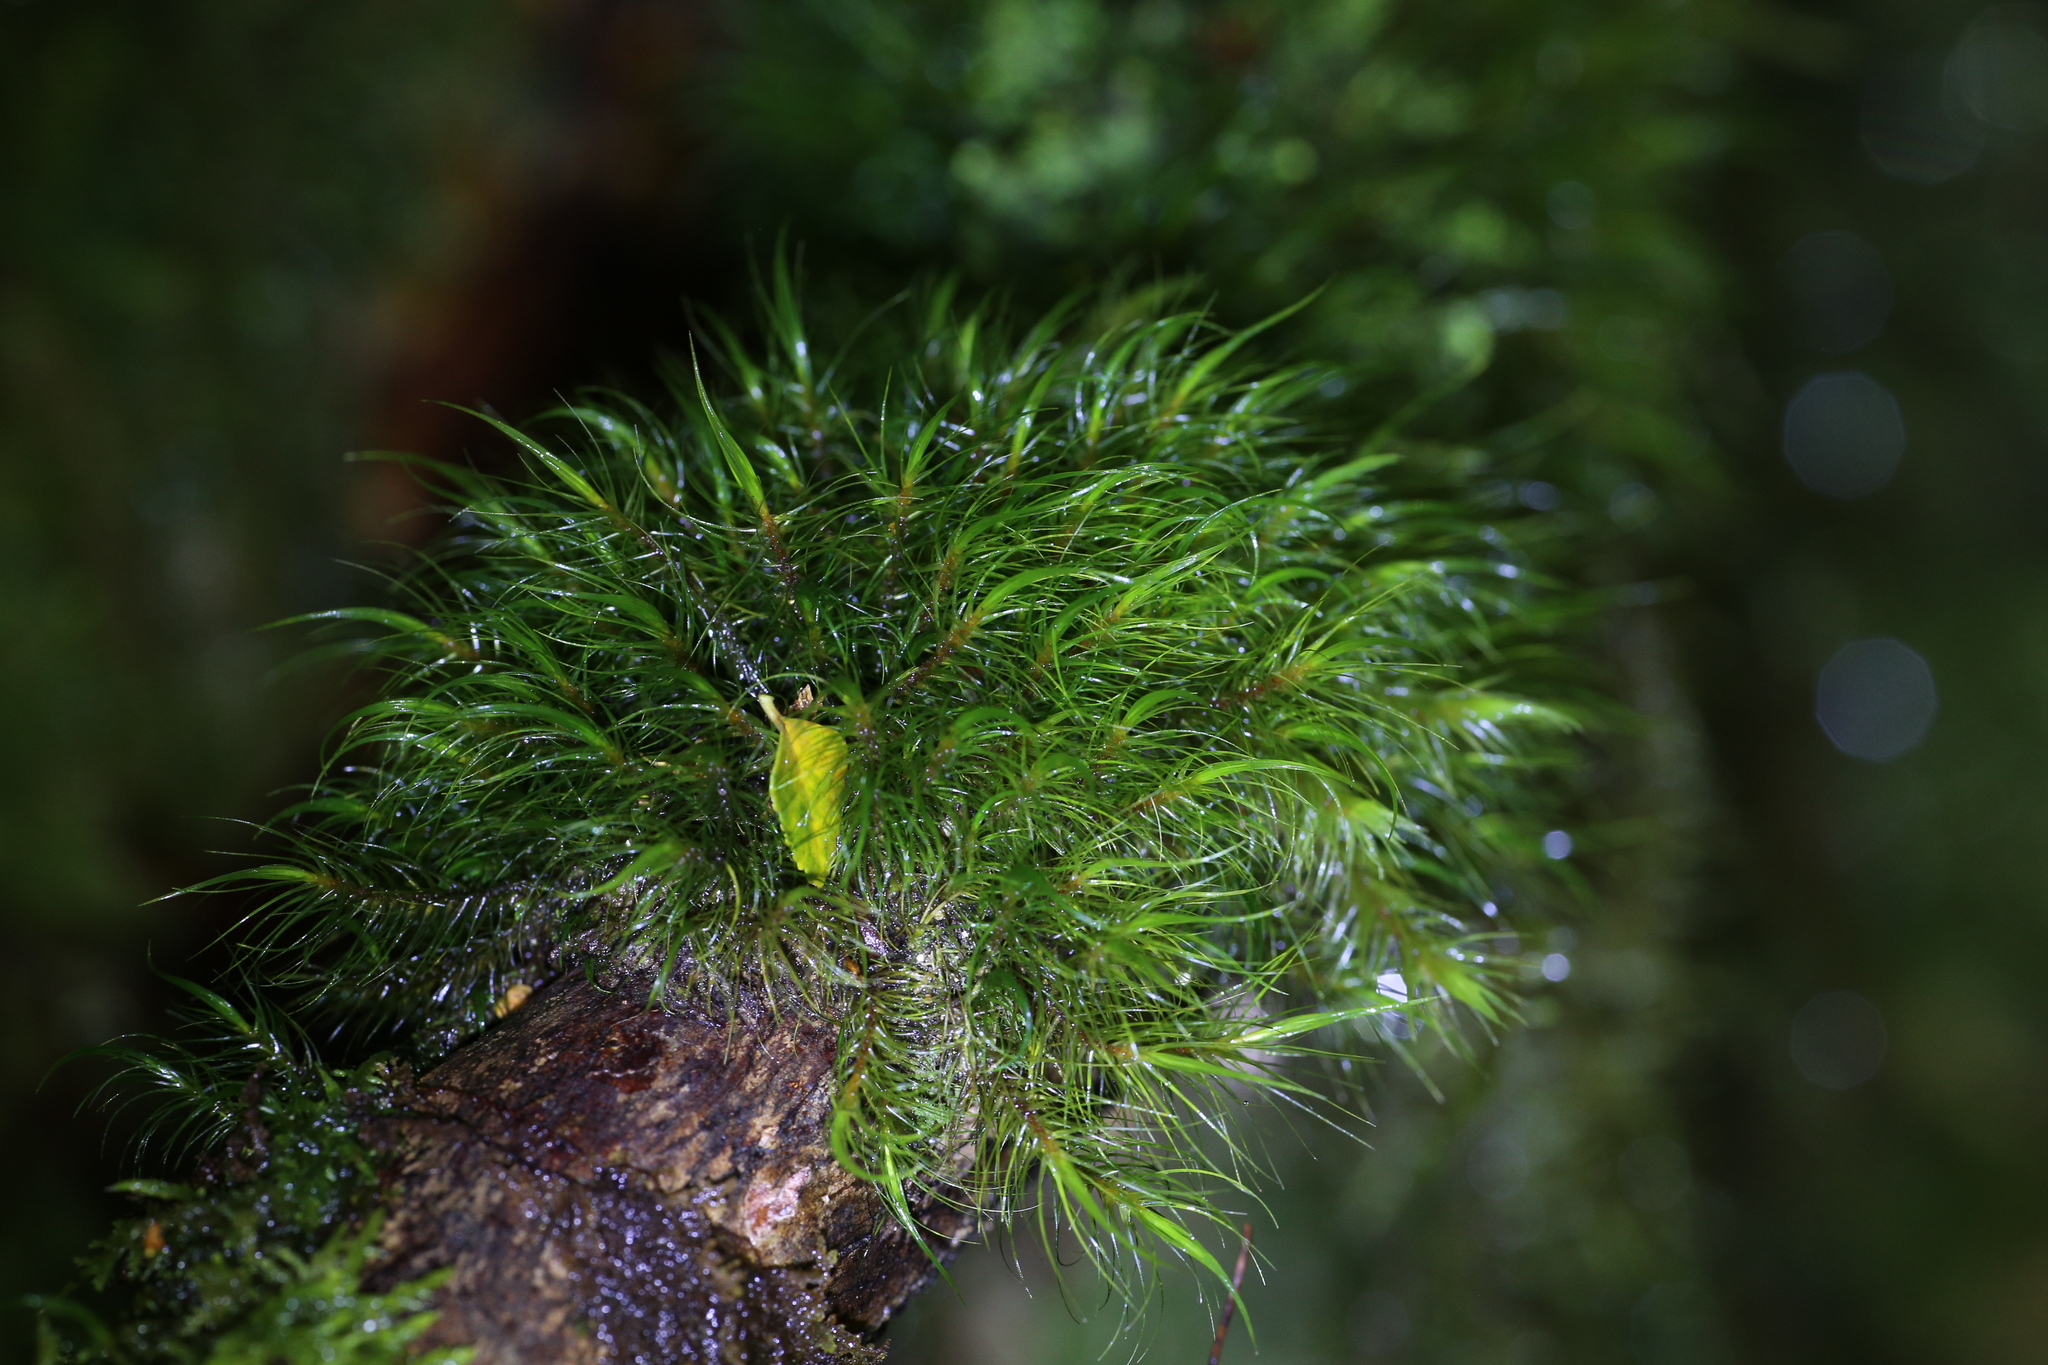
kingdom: Plantae
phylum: Bryophyta
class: Bryopsida
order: Dicranales
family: Dicranaceae
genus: Dicranoloma
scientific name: Dicranoloma menziesii
